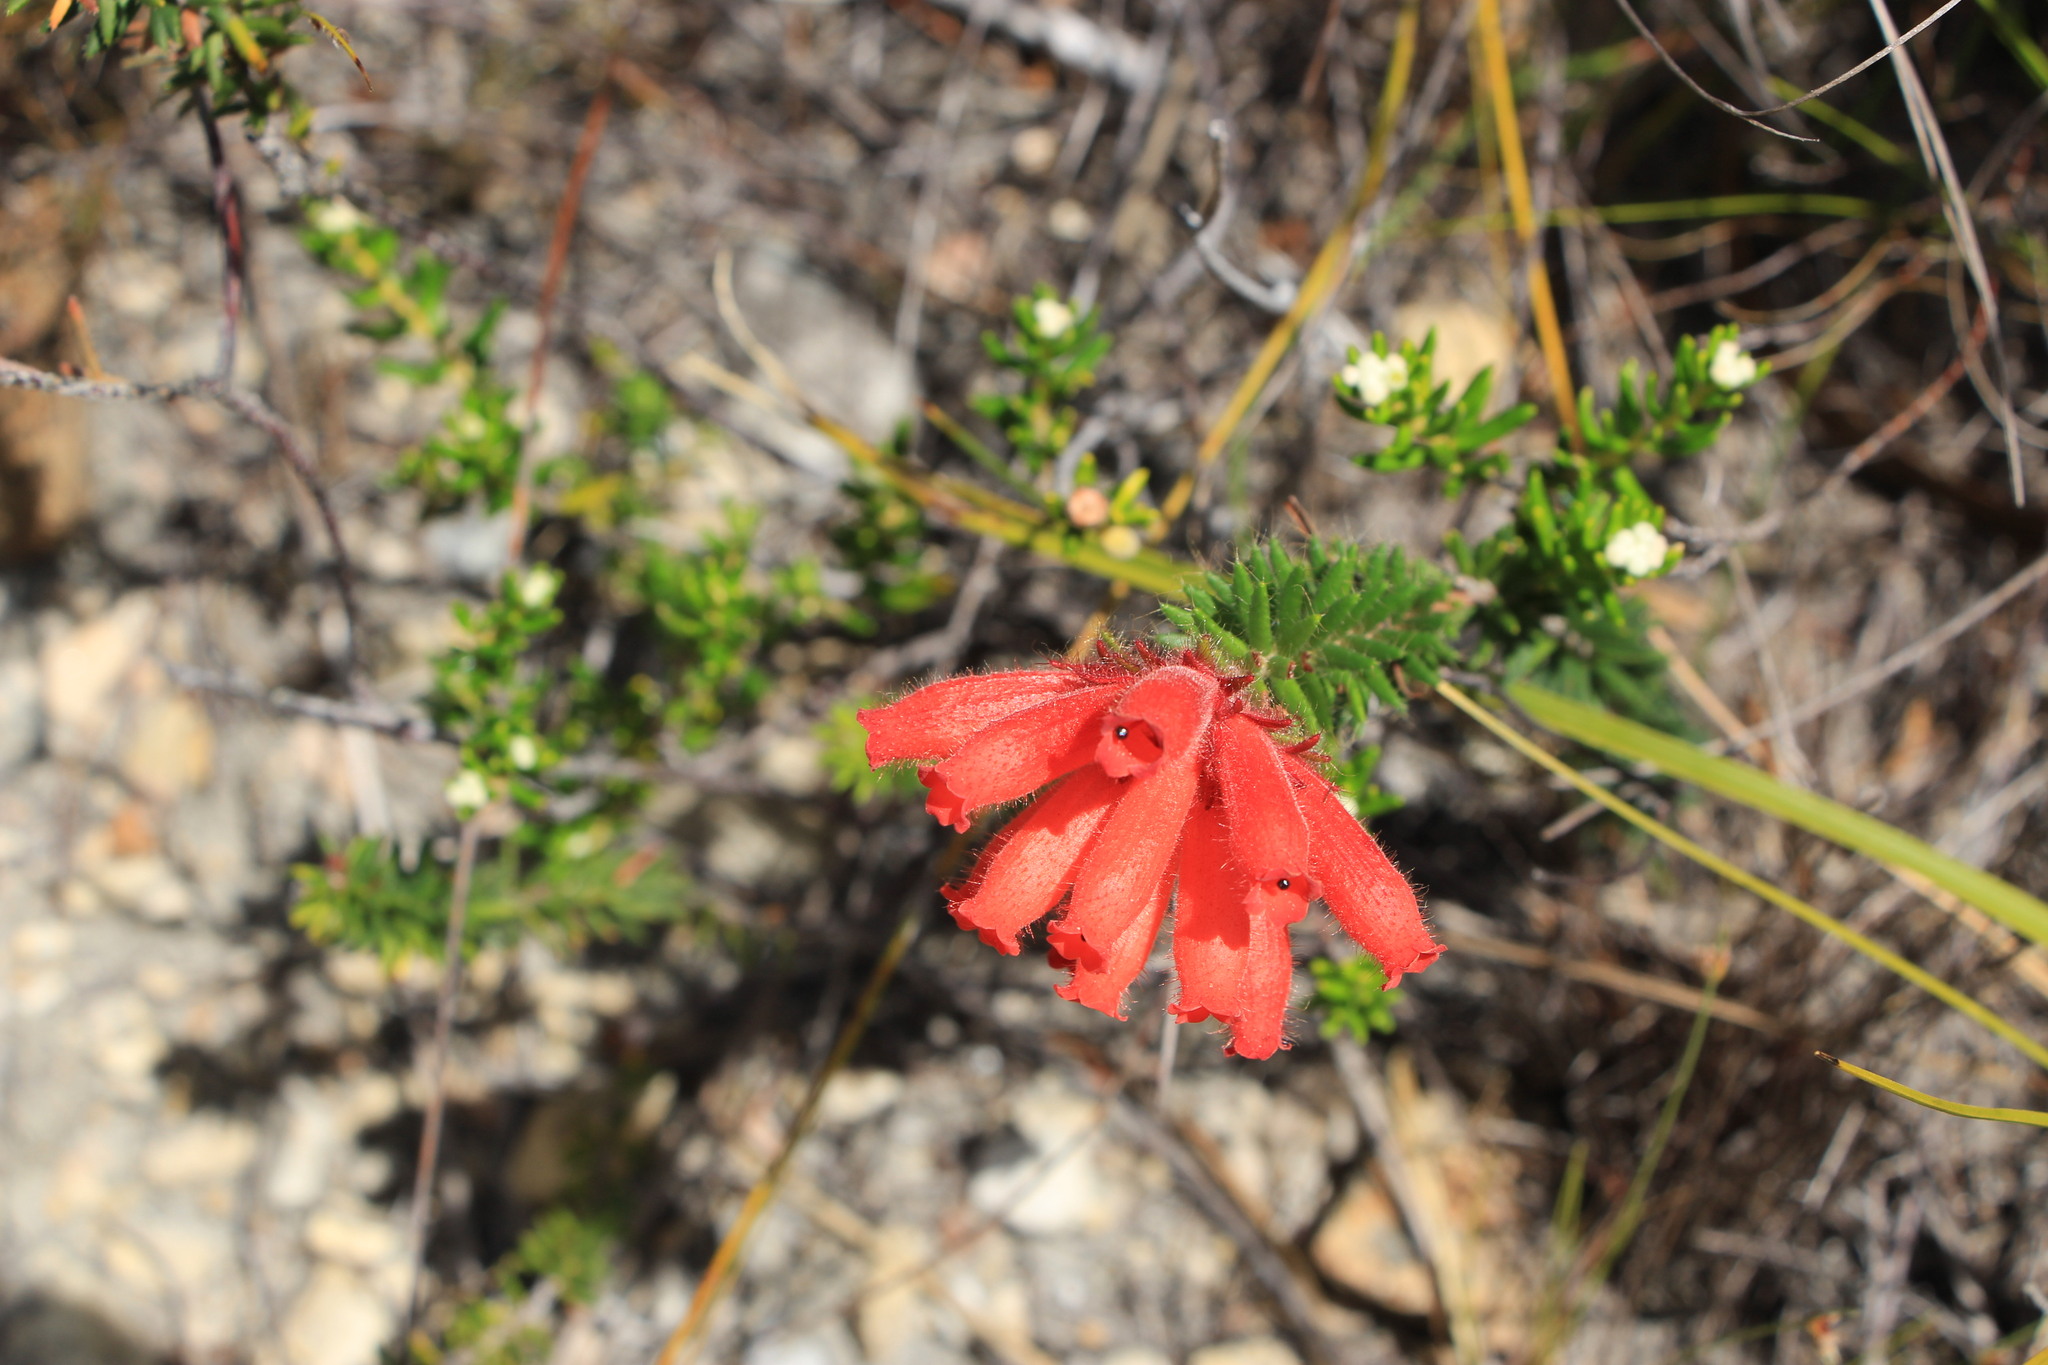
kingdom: Plantae
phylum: Tracheophyta
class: Magnoliopsida
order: Ericales
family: Ericaceae
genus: Erica
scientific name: Erica cerinthoides
